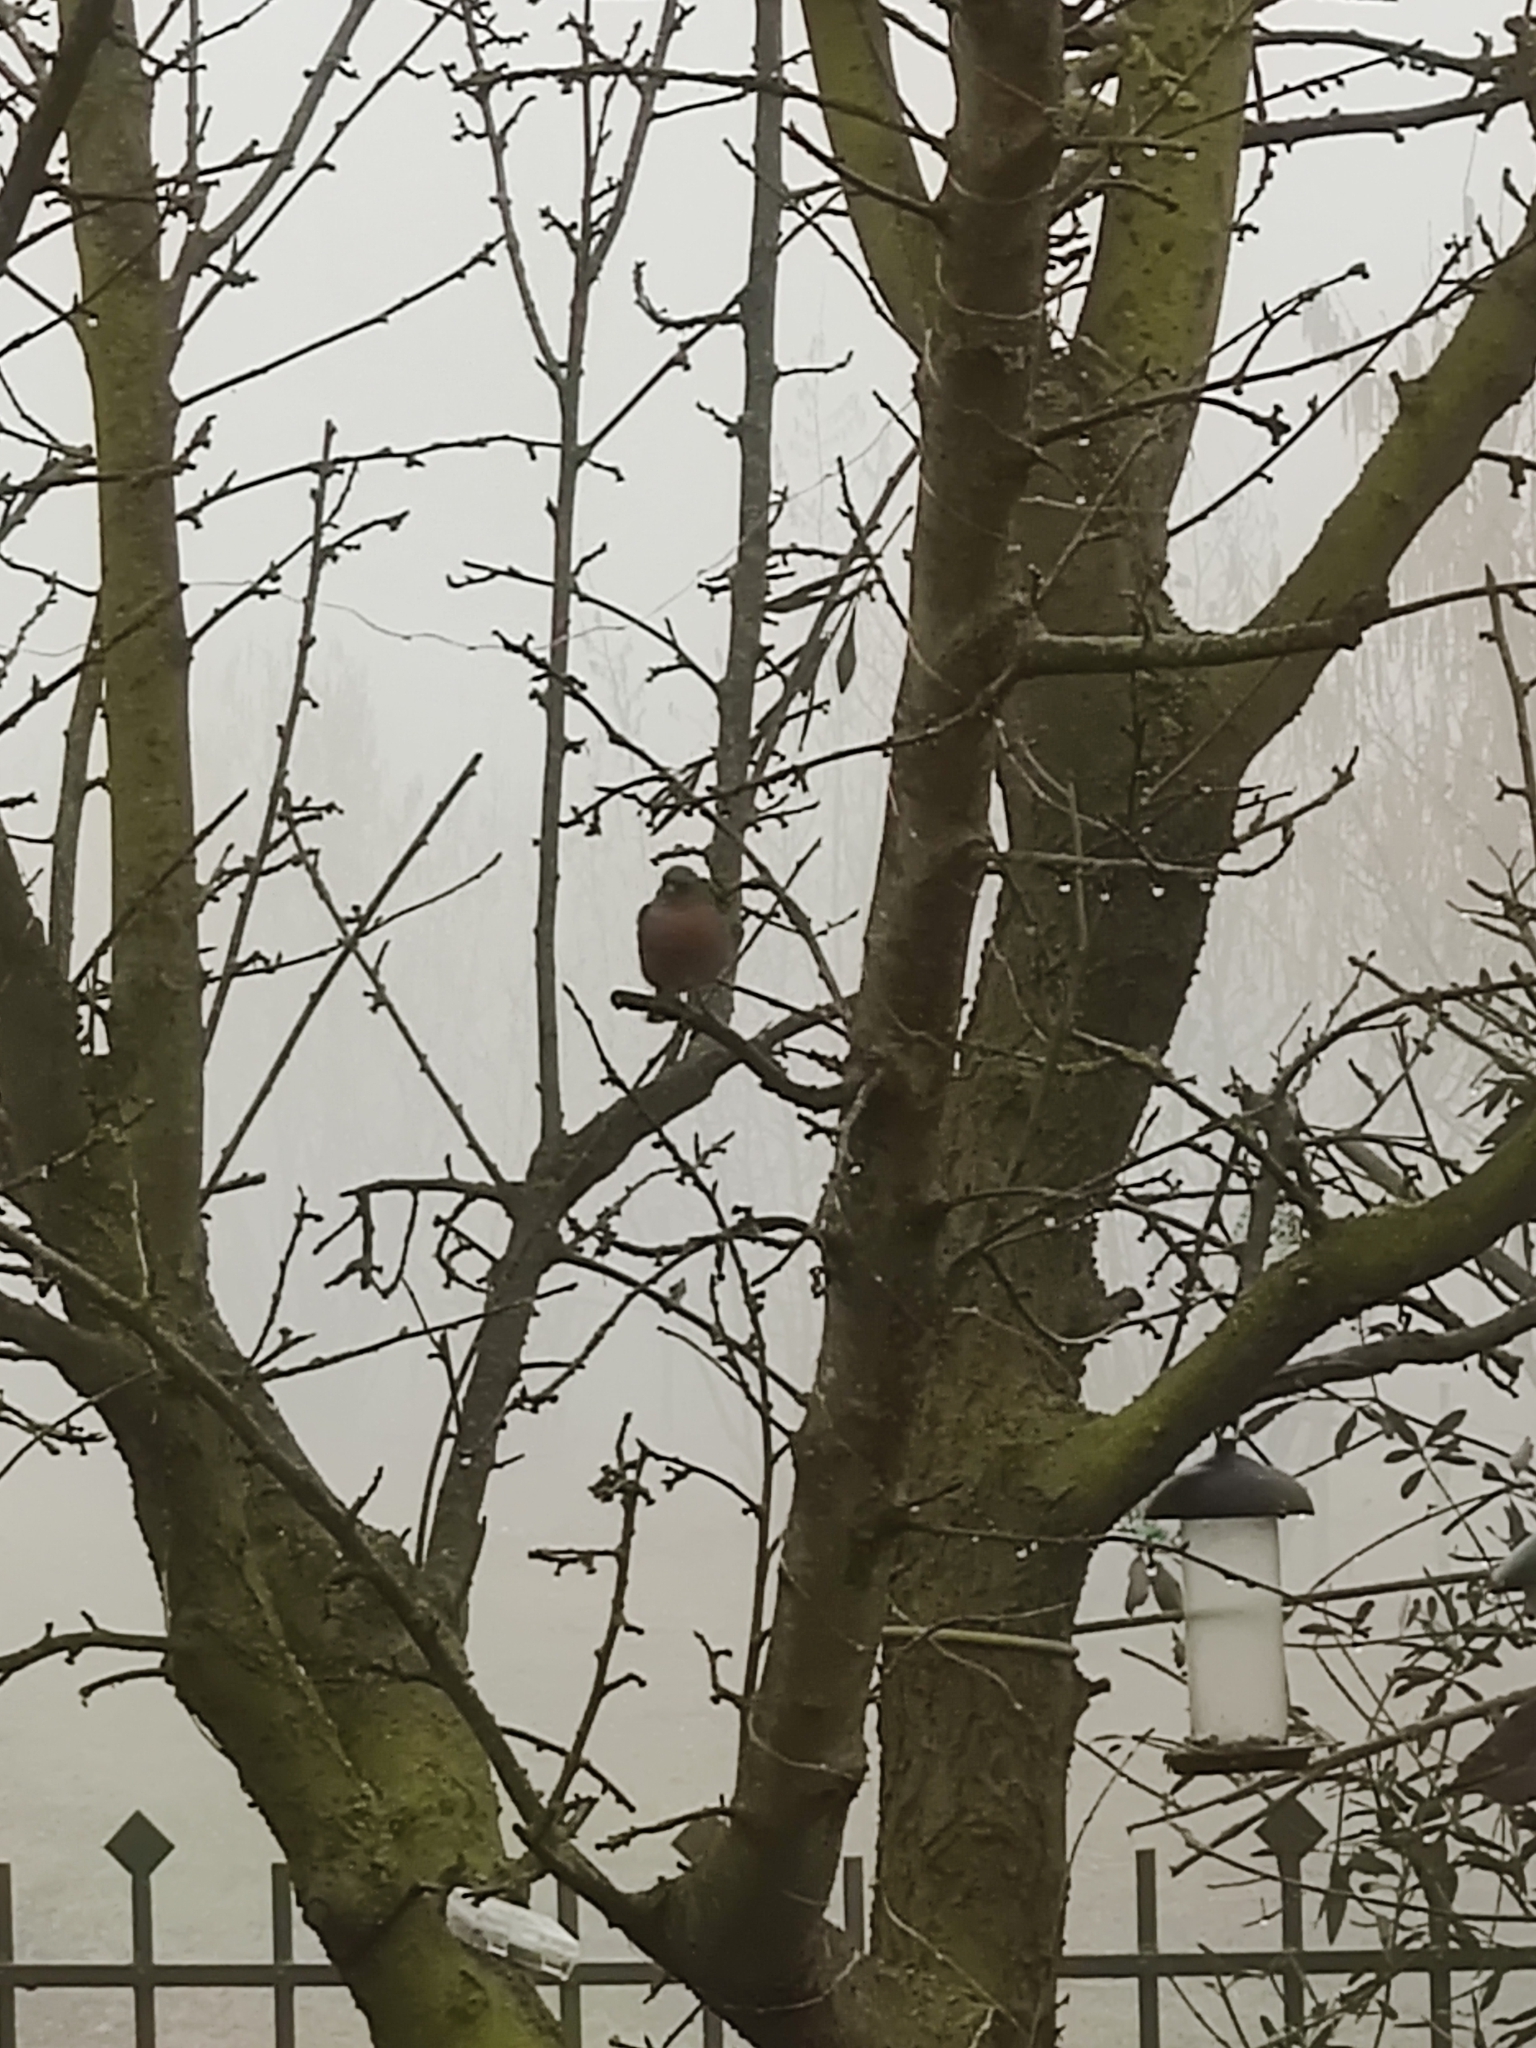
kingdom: Animalia
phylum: Chordata
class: Aves
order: Passeriformes
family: Fringillidae
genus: Fringilla
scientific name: Fringilla coelebs
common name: Common chaffinch
